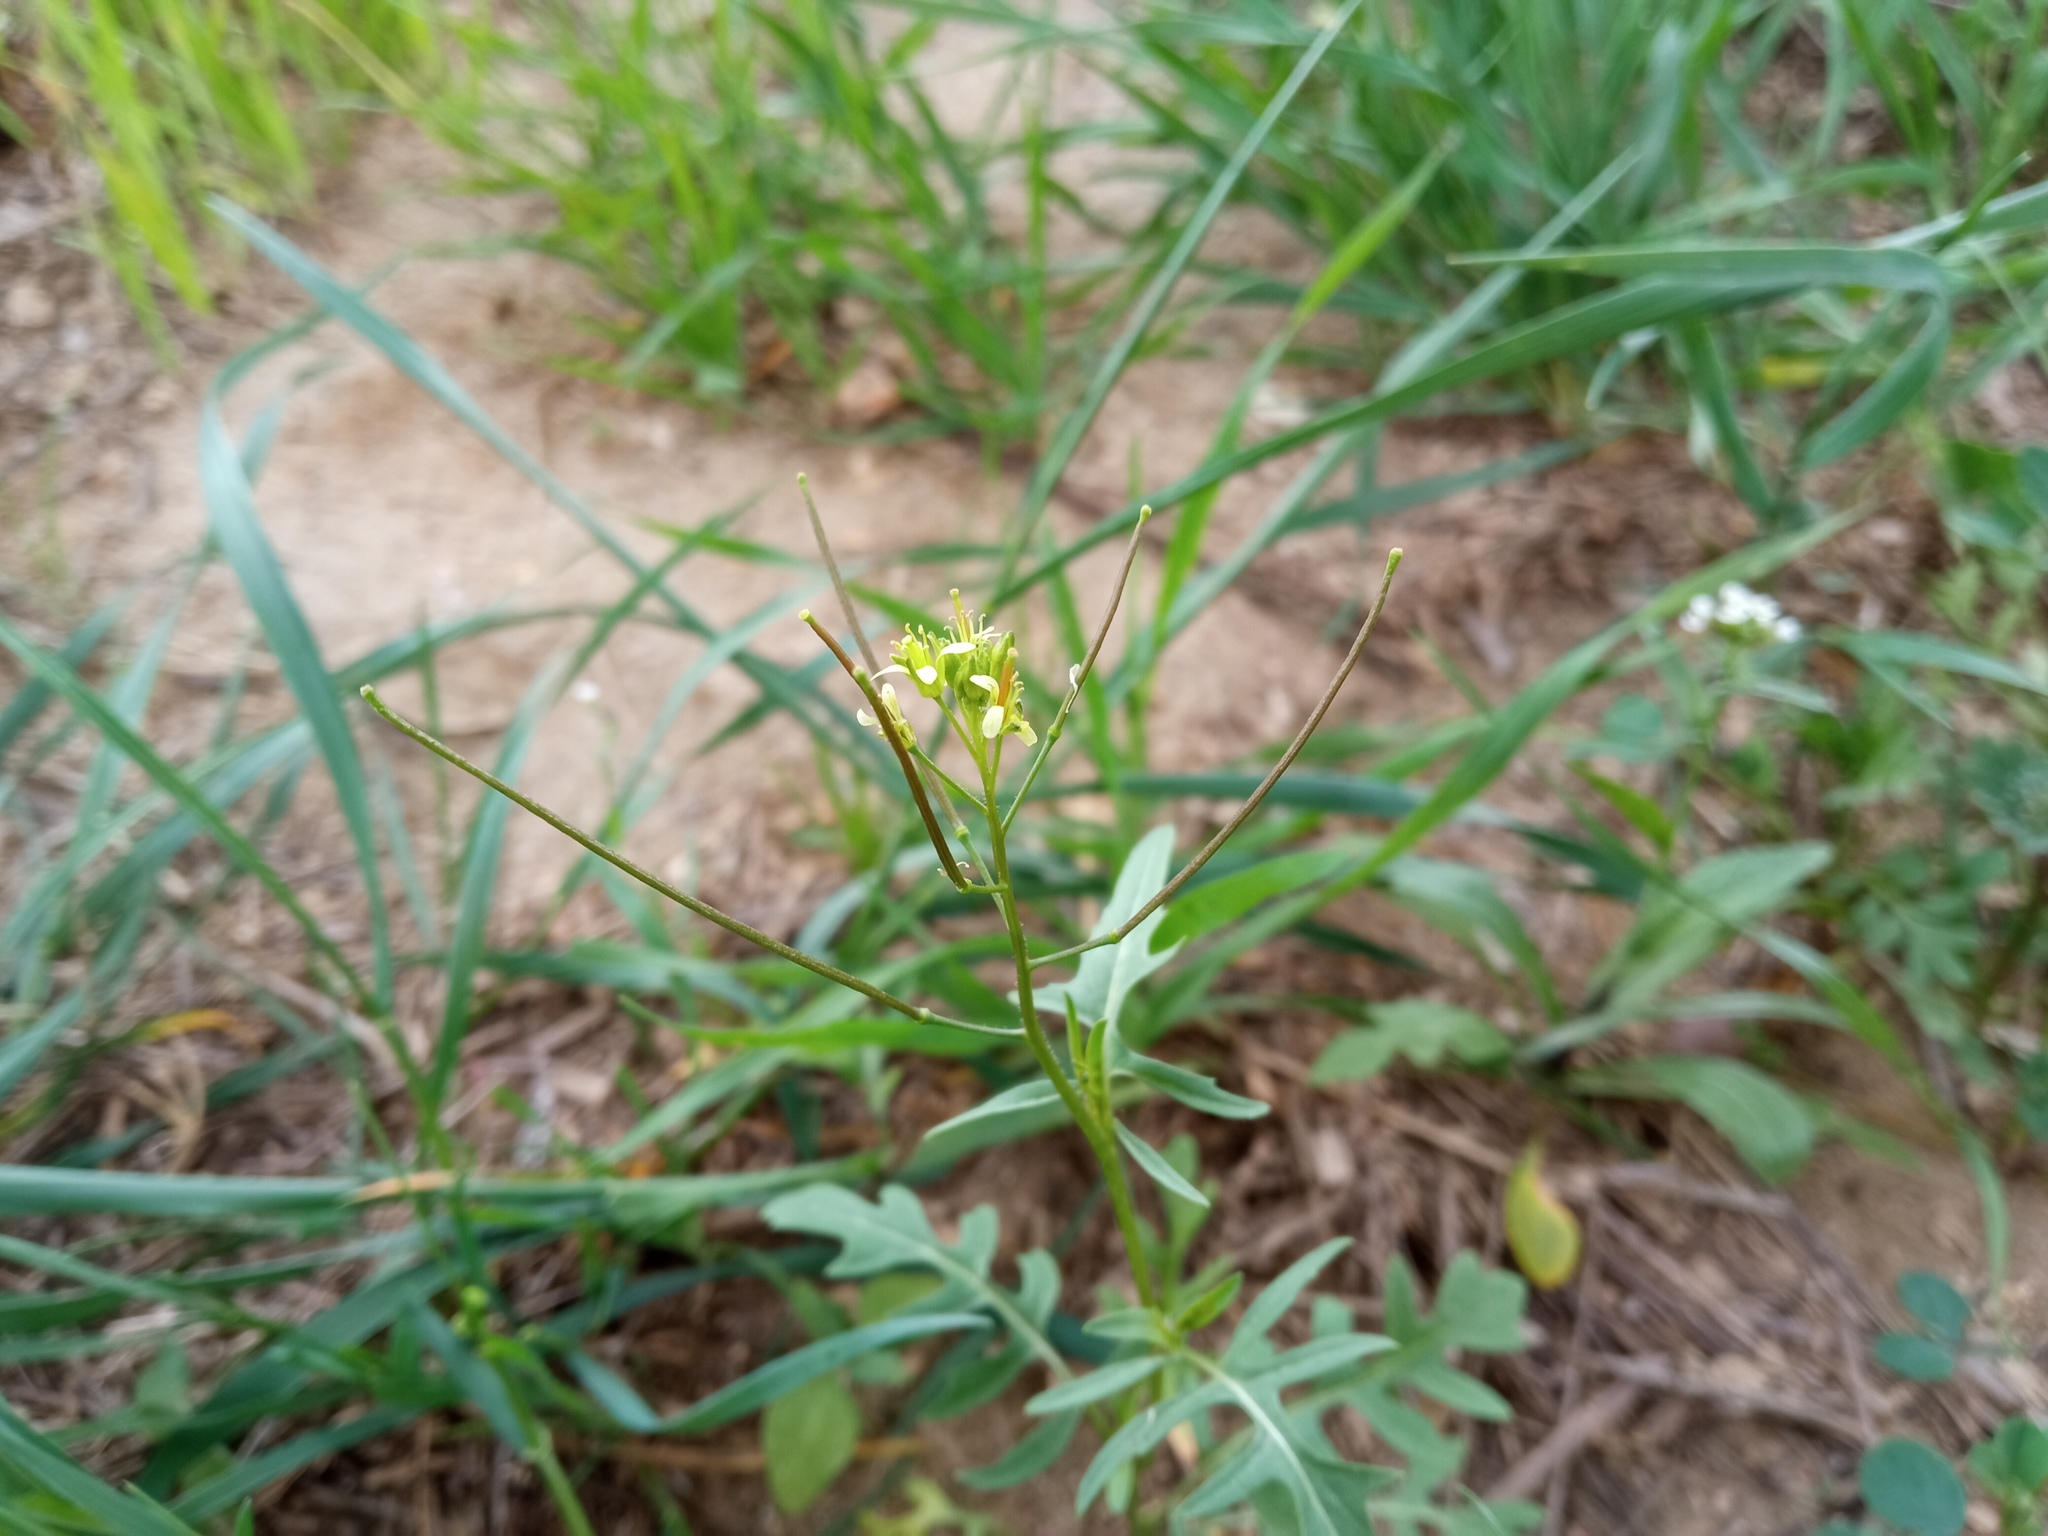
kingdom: Plantae
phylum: Tracheophyta
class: Magnoliopsida
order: Brassicales
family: Brassicaceae
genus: Sisymbrium
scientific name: Sisymbrium irio
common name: London rocket
